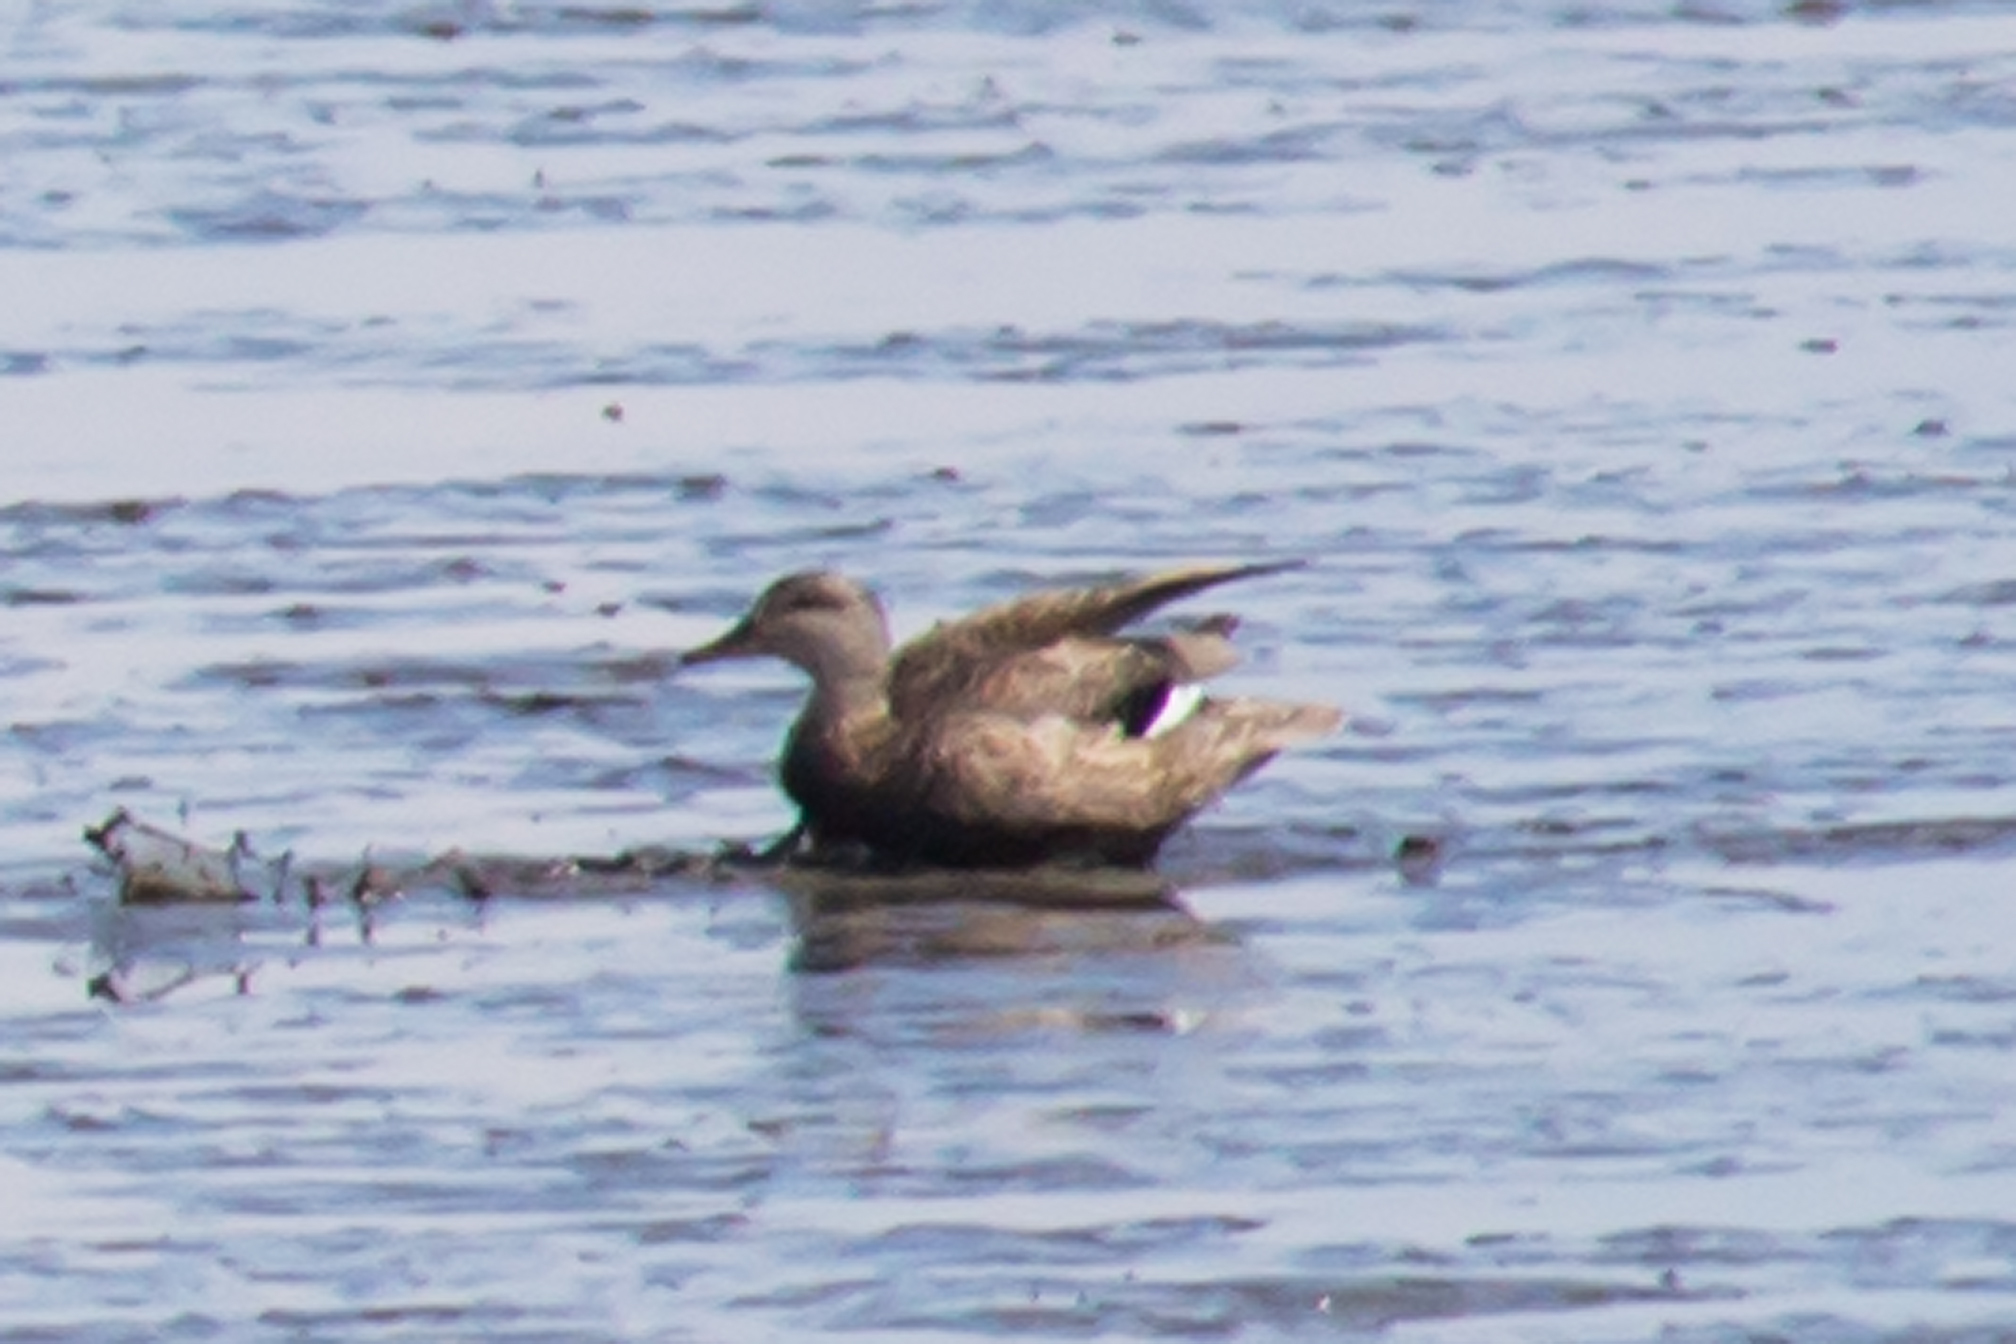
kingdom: Animalia
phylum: Chordata
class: Aves
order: Anseriformes
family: Anatidae
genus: Mareca
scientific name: Mareca strepera
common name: Gadwall
